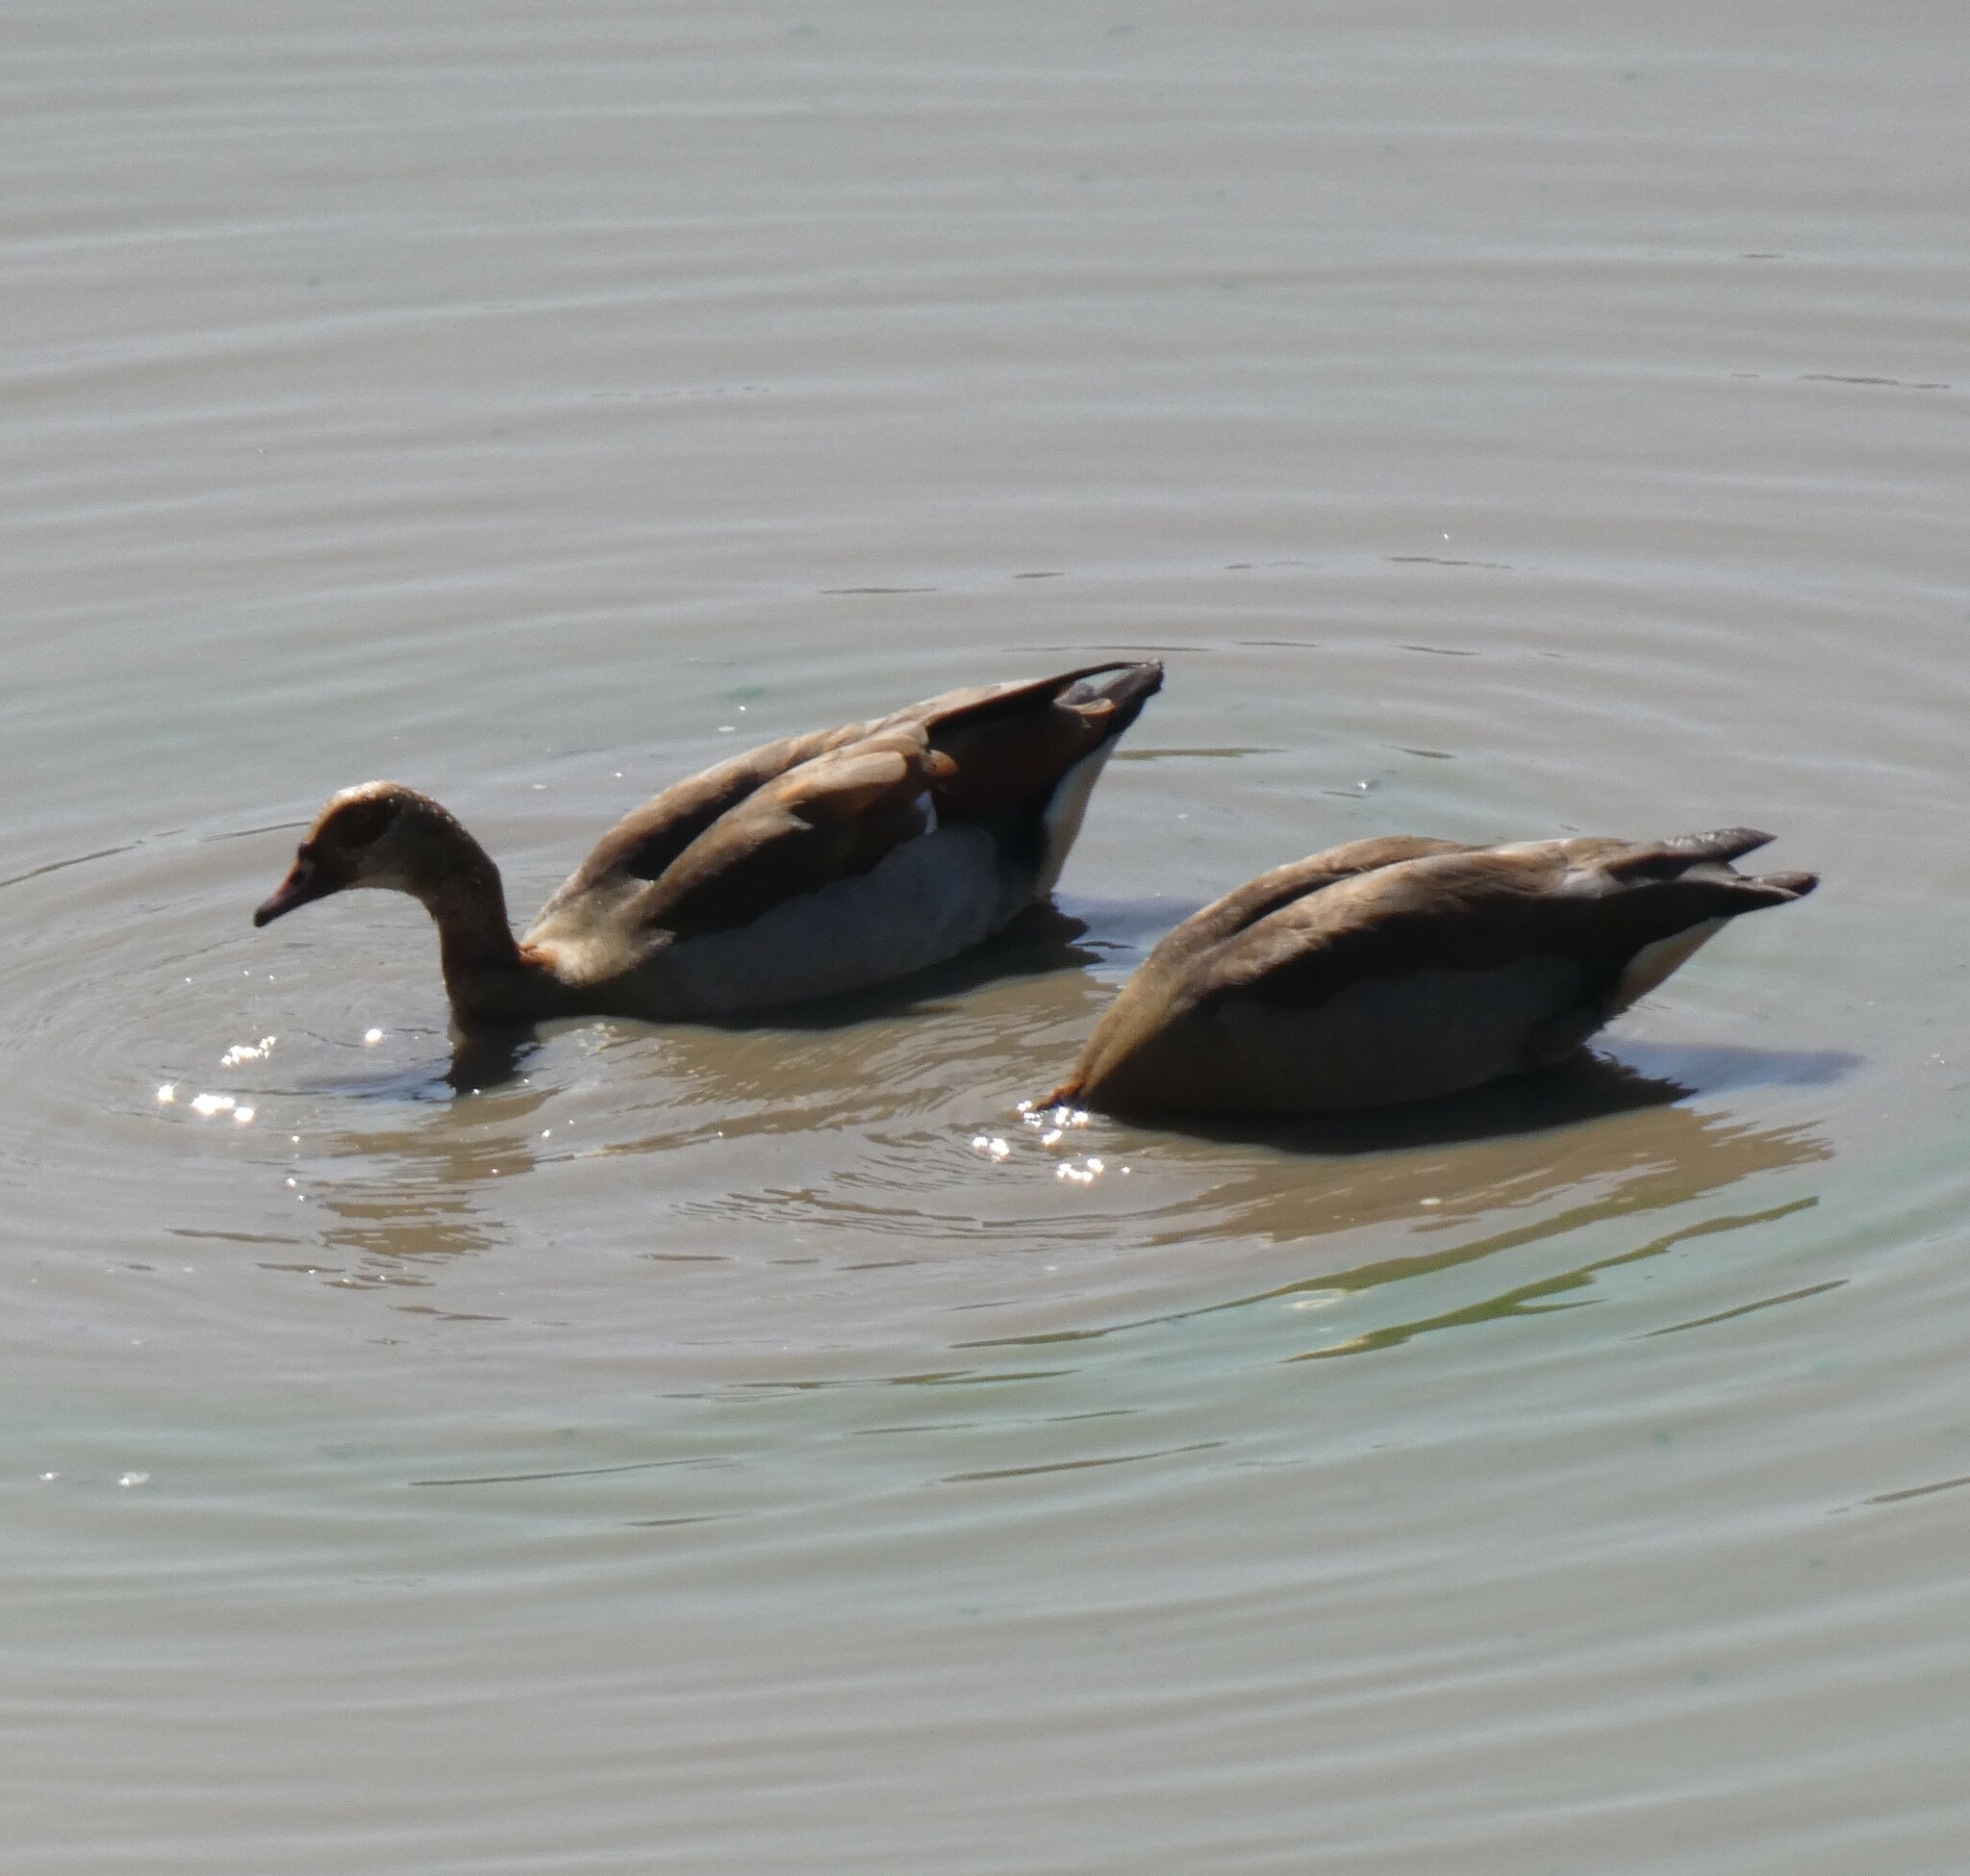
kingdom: Animalia
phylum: Chordata
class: Aves
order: Anseriformes
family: Anatidae
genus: Alopochen
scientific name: Alopochen aegyptiaca
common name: Egyptian goose
